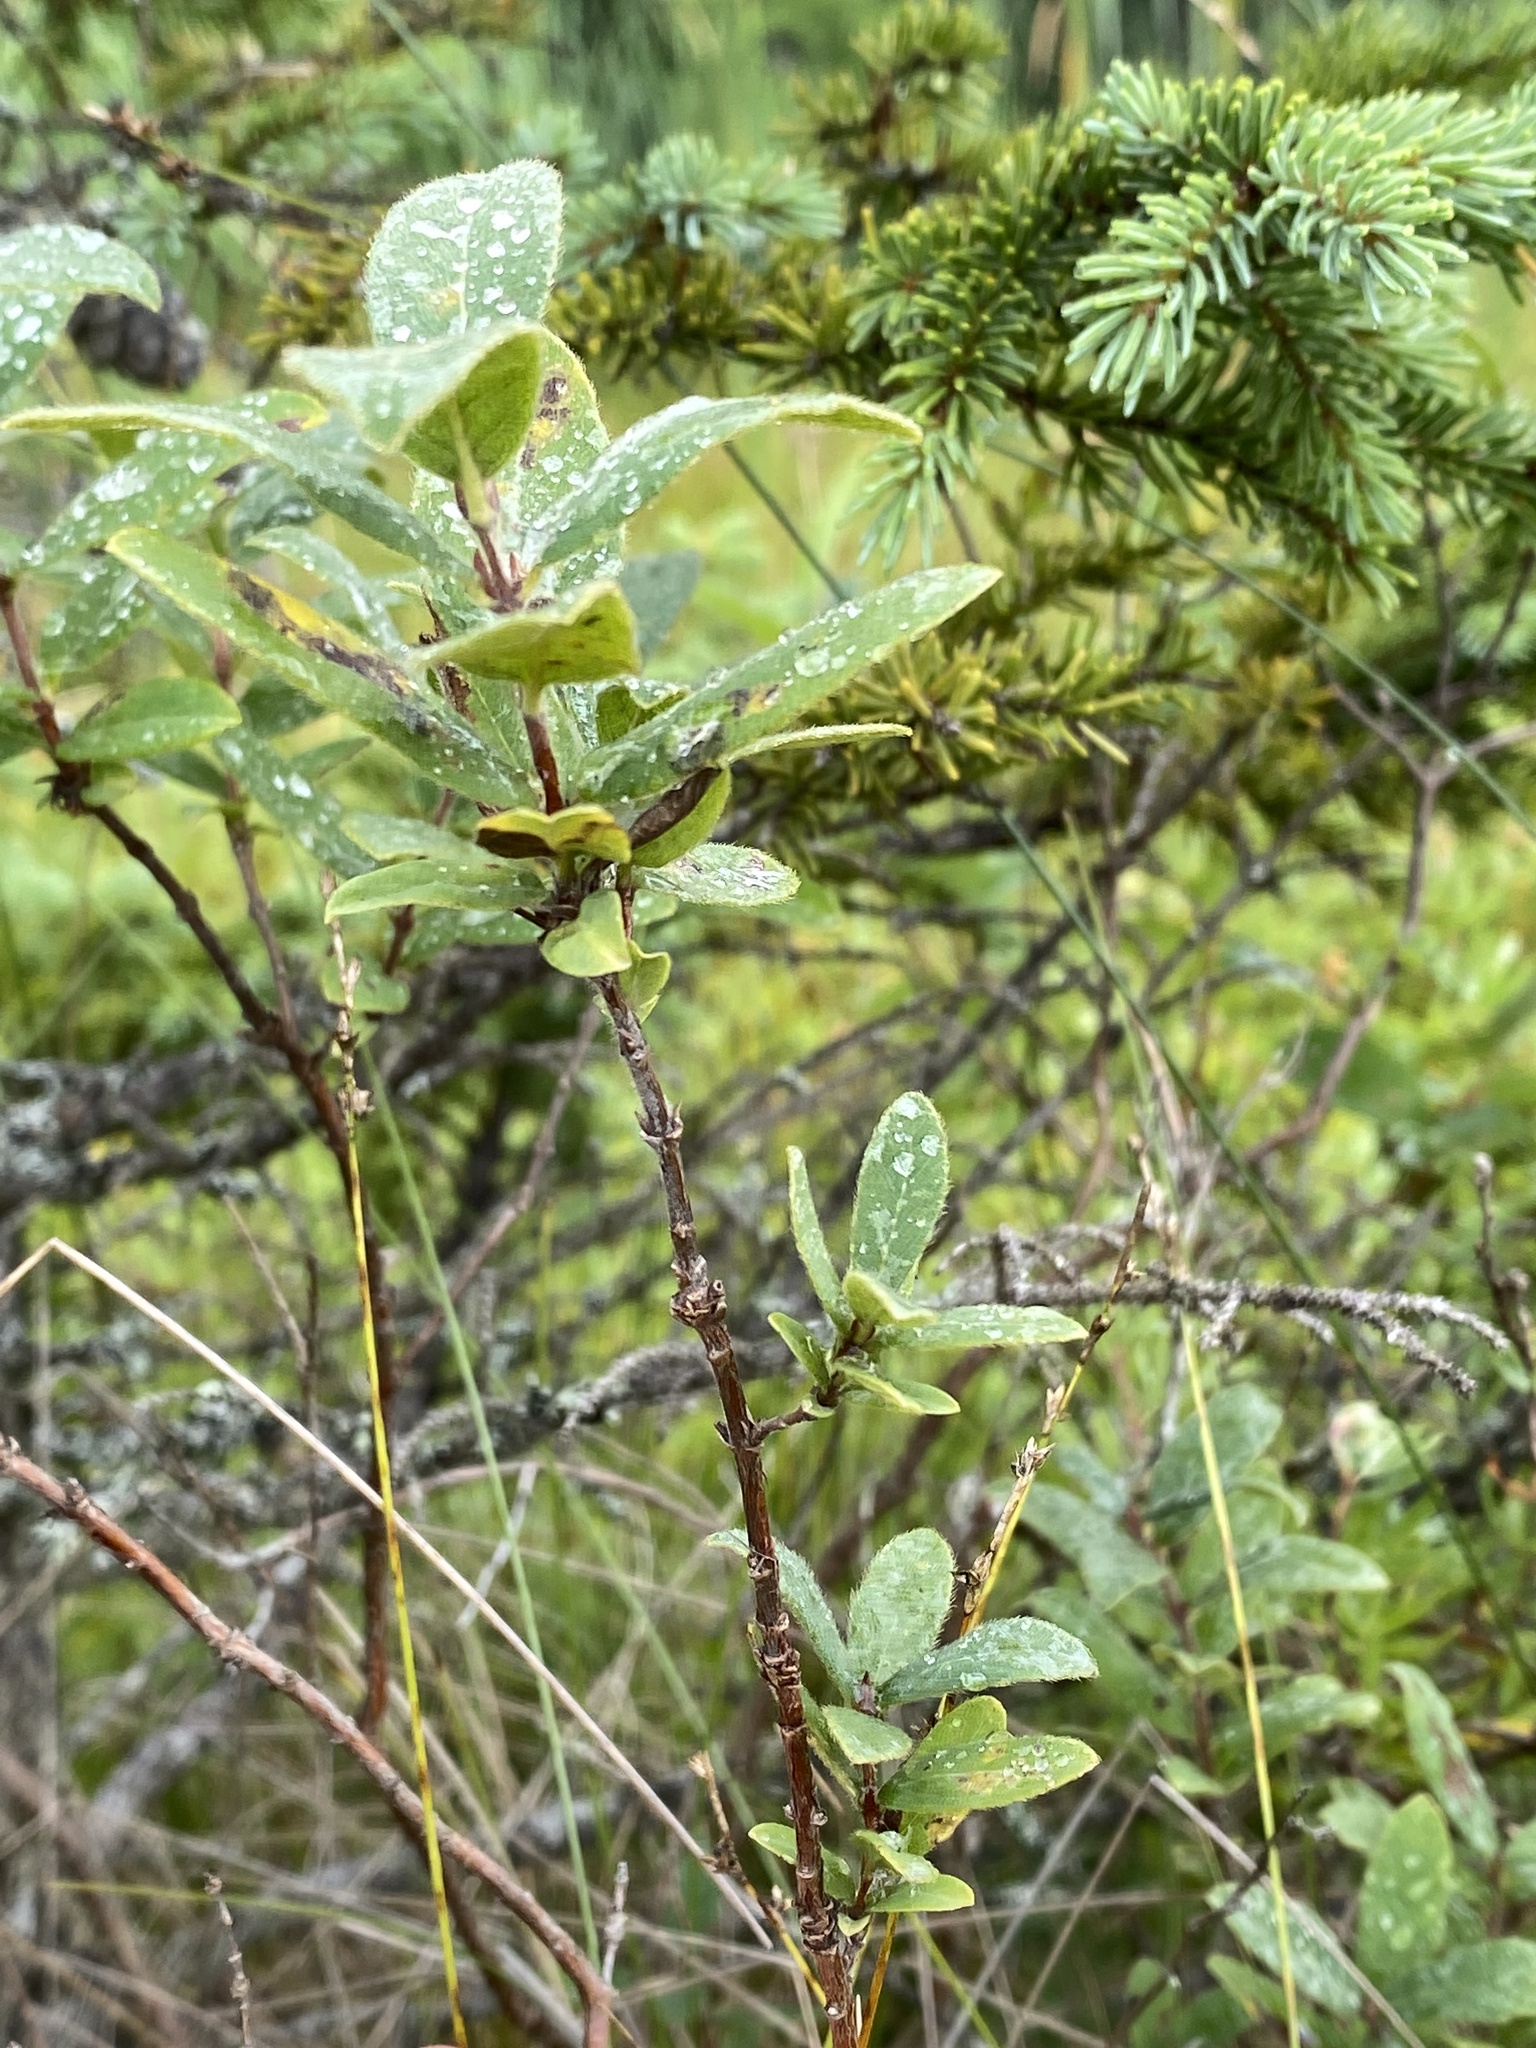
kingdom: Plantae
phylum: Tracheophyta
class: Magnoliopsida
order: Dipsacales
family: Caprifoliaceae
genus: Lonicera
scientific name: Lonicera villosa
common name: Mountain fly-honeysuckle
